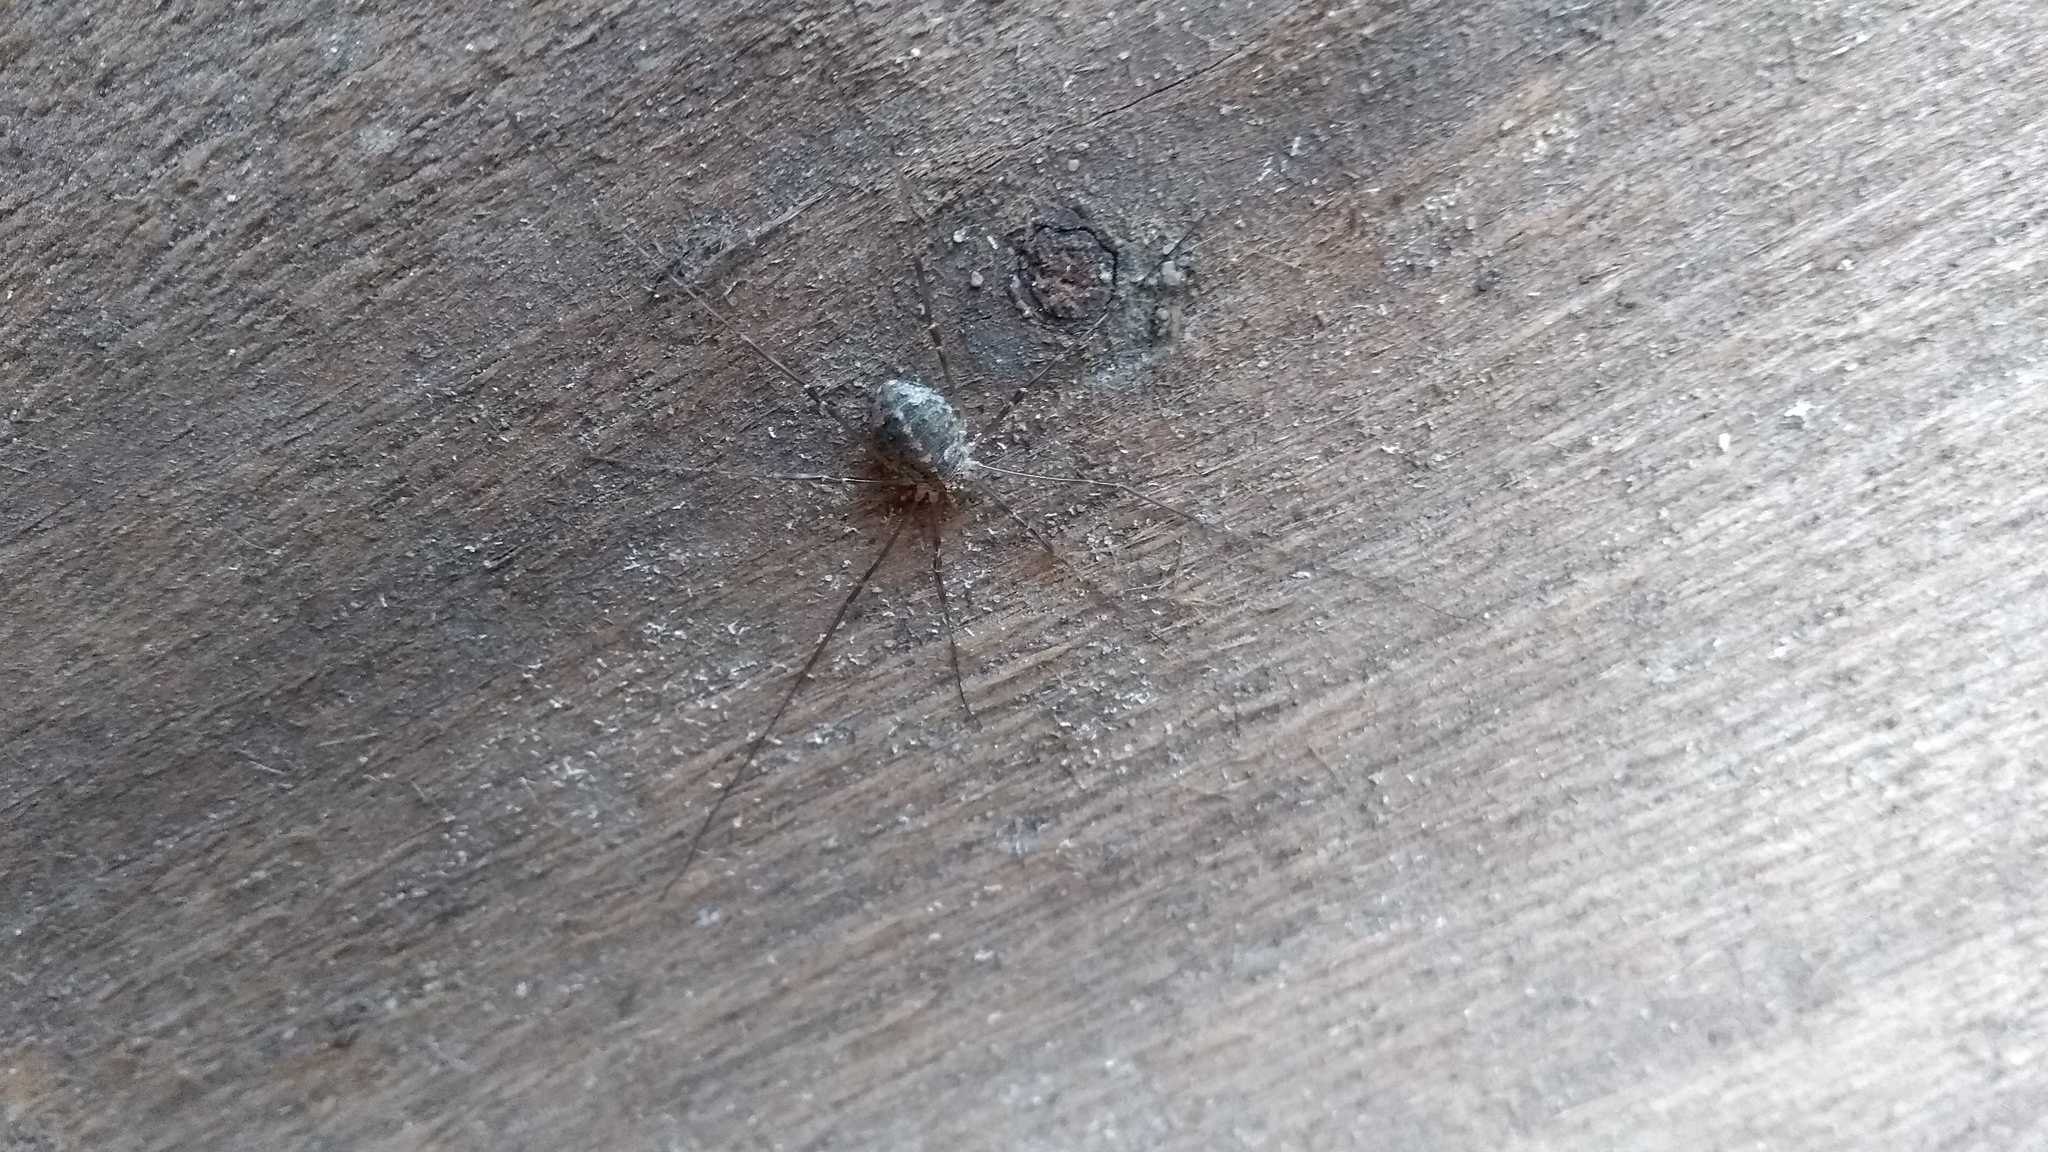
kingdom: Animalia
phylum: Arthropoda
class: Arachnida
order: Opiliones
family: Phalangiidae
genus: Opilio
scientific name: Opilio saxatilis
